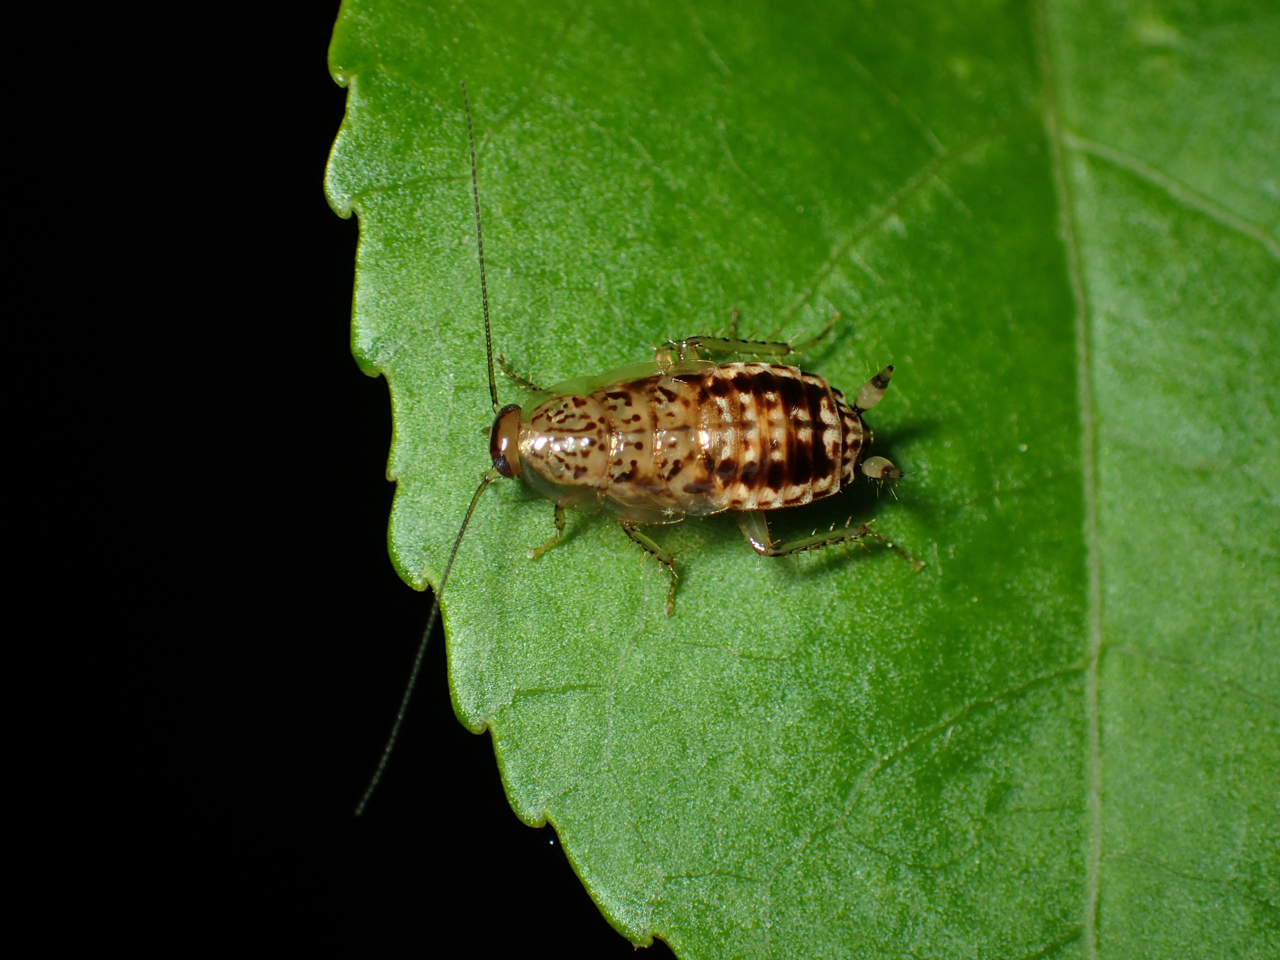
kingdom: Animalia
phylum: Arthropoda
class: Insecta
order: Blattodea
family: Ectobiidae
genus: Cariblatta
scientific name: Cariblatta lutea
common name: Small yellow cockroach
